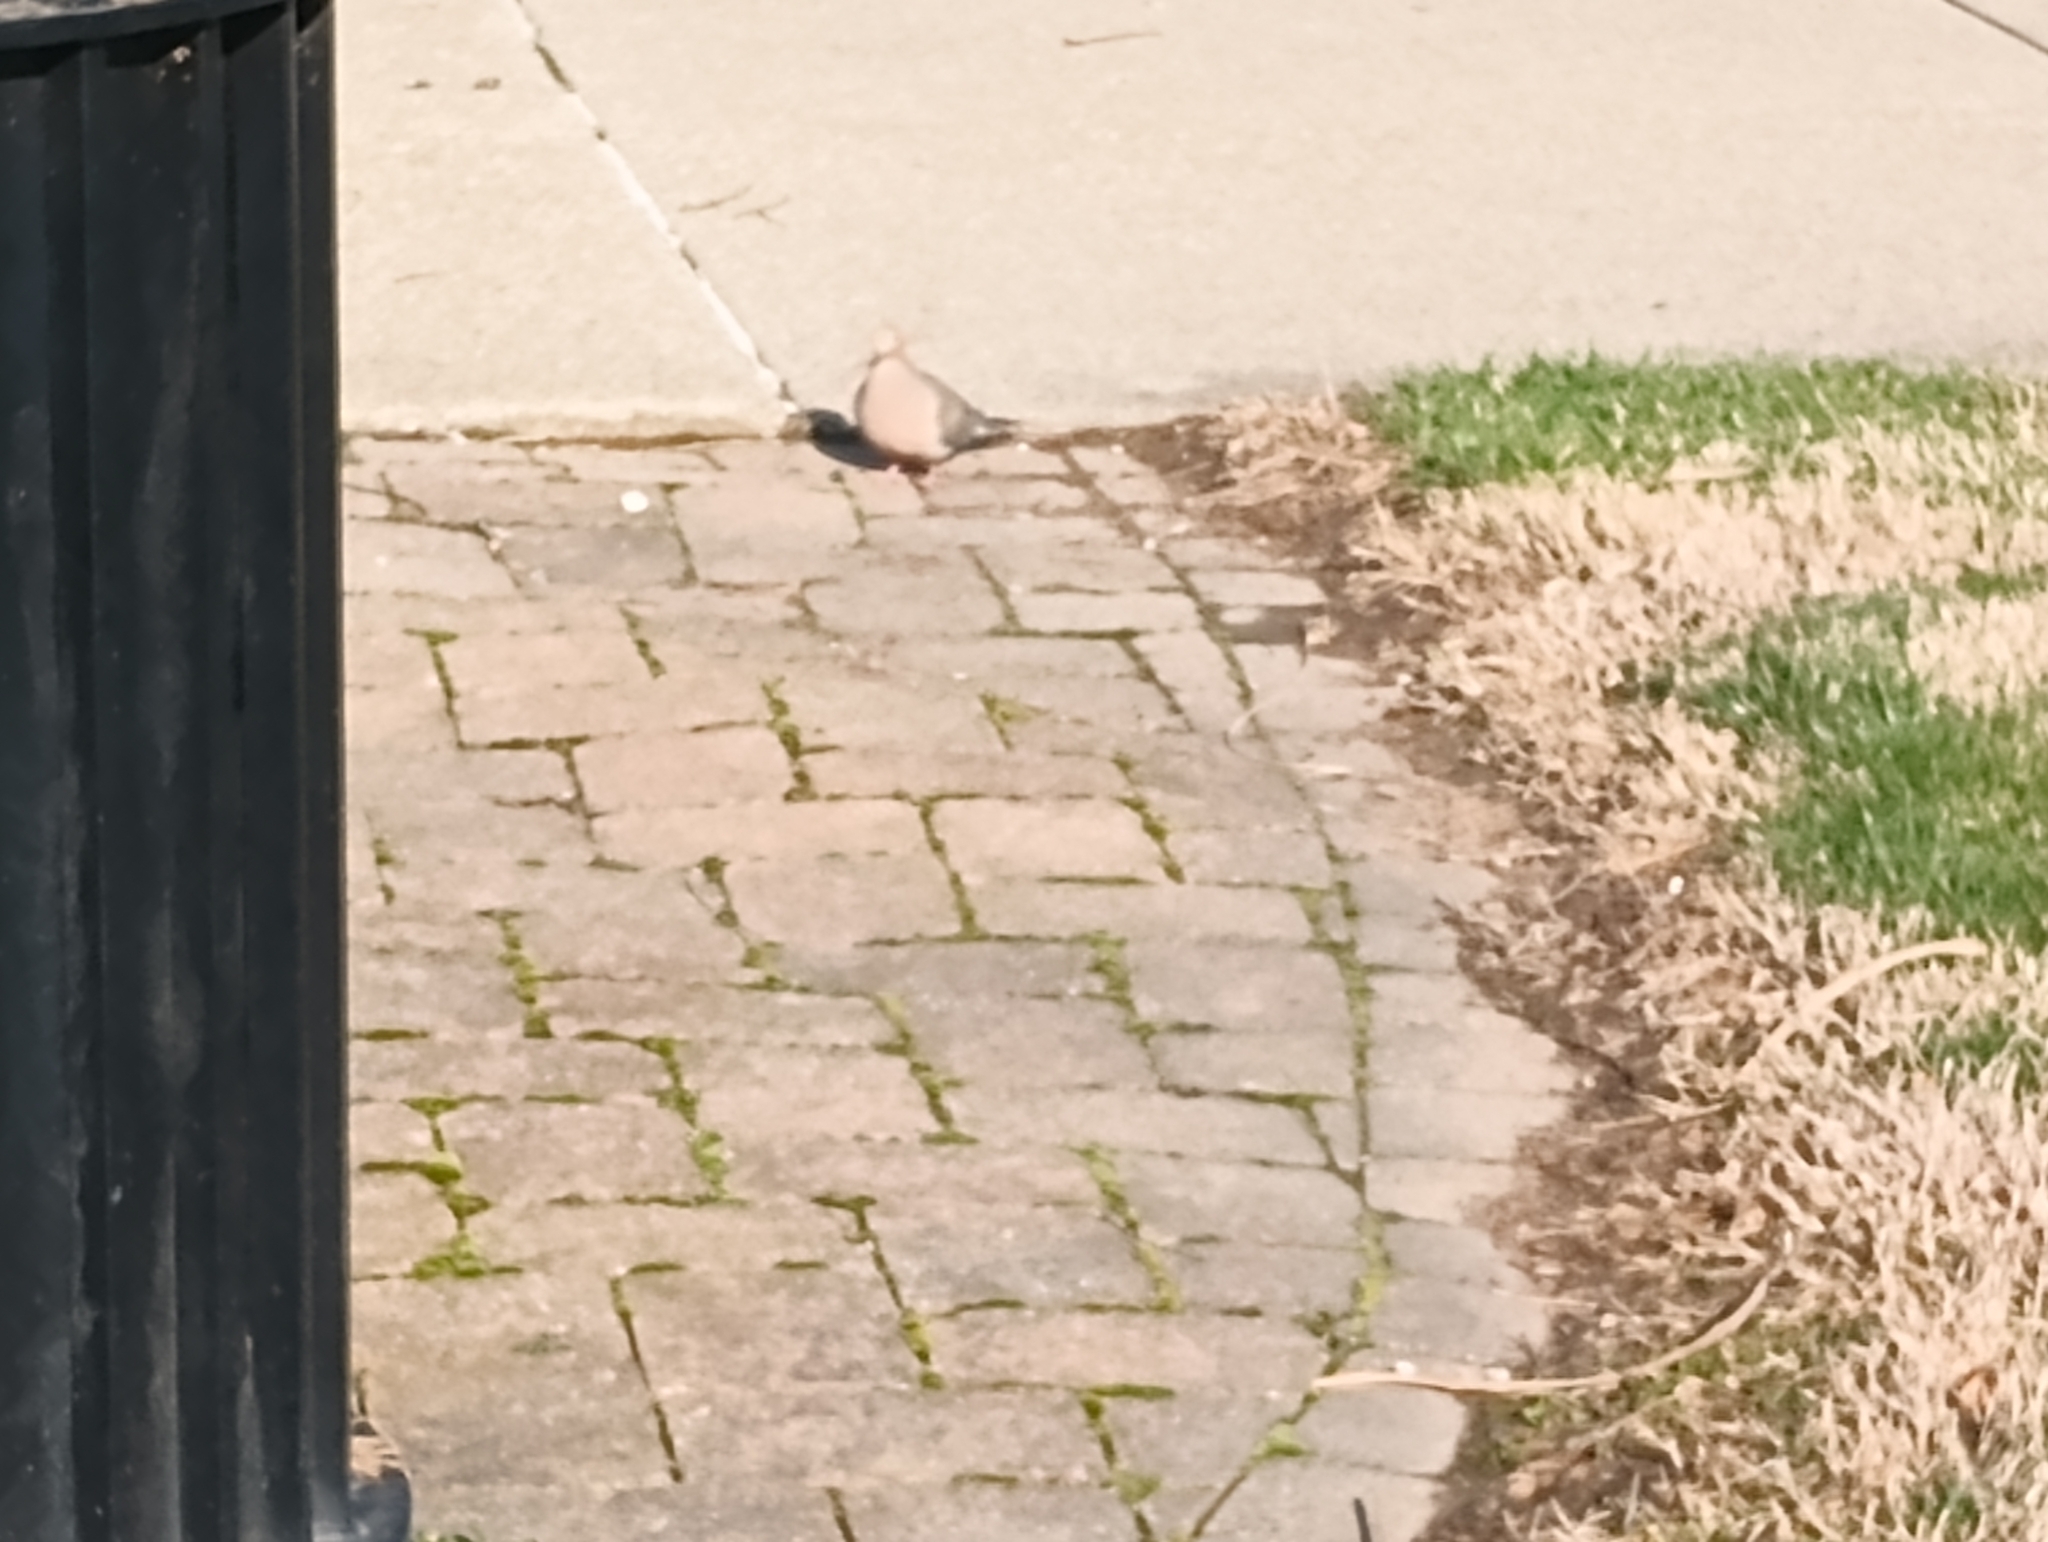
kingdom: Animalia
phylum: Chordata
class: Aves
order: Columbiformes
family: Columbidae
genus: Zenaida
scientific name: Zenaida macroura
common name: Mourning dove
